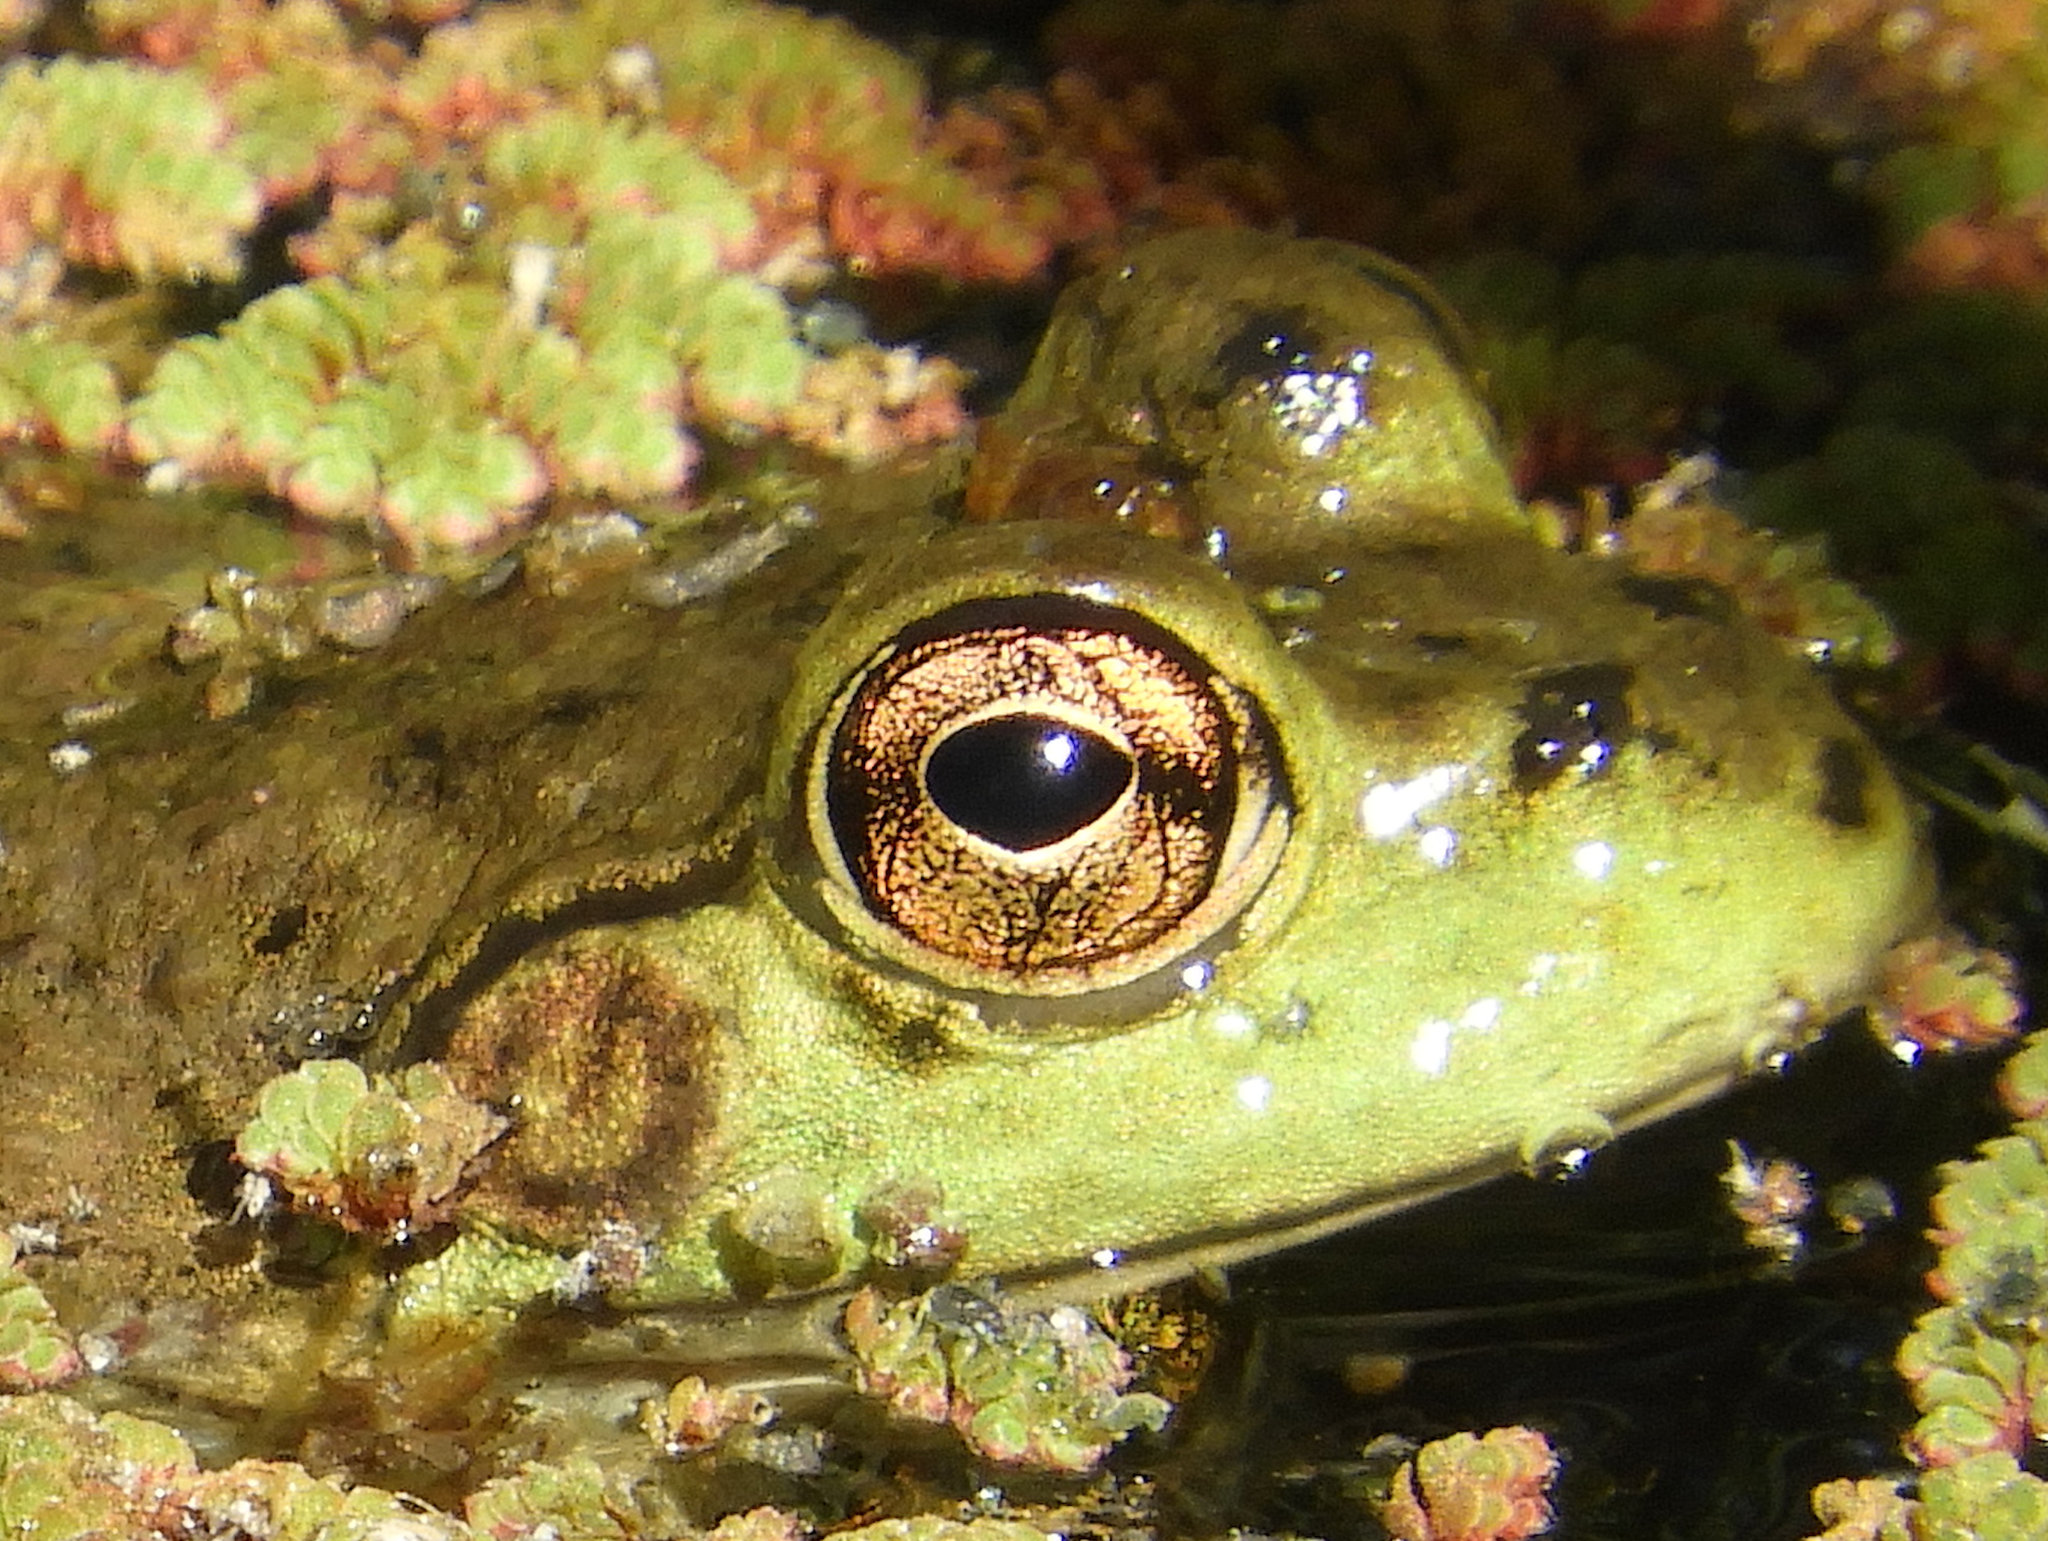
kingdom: Animalia
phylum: Chordata
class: Amphibia
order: Anura
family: Ranidae
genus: Lithobates
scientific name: Lithobates catesbeianus
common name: American bullfrog
